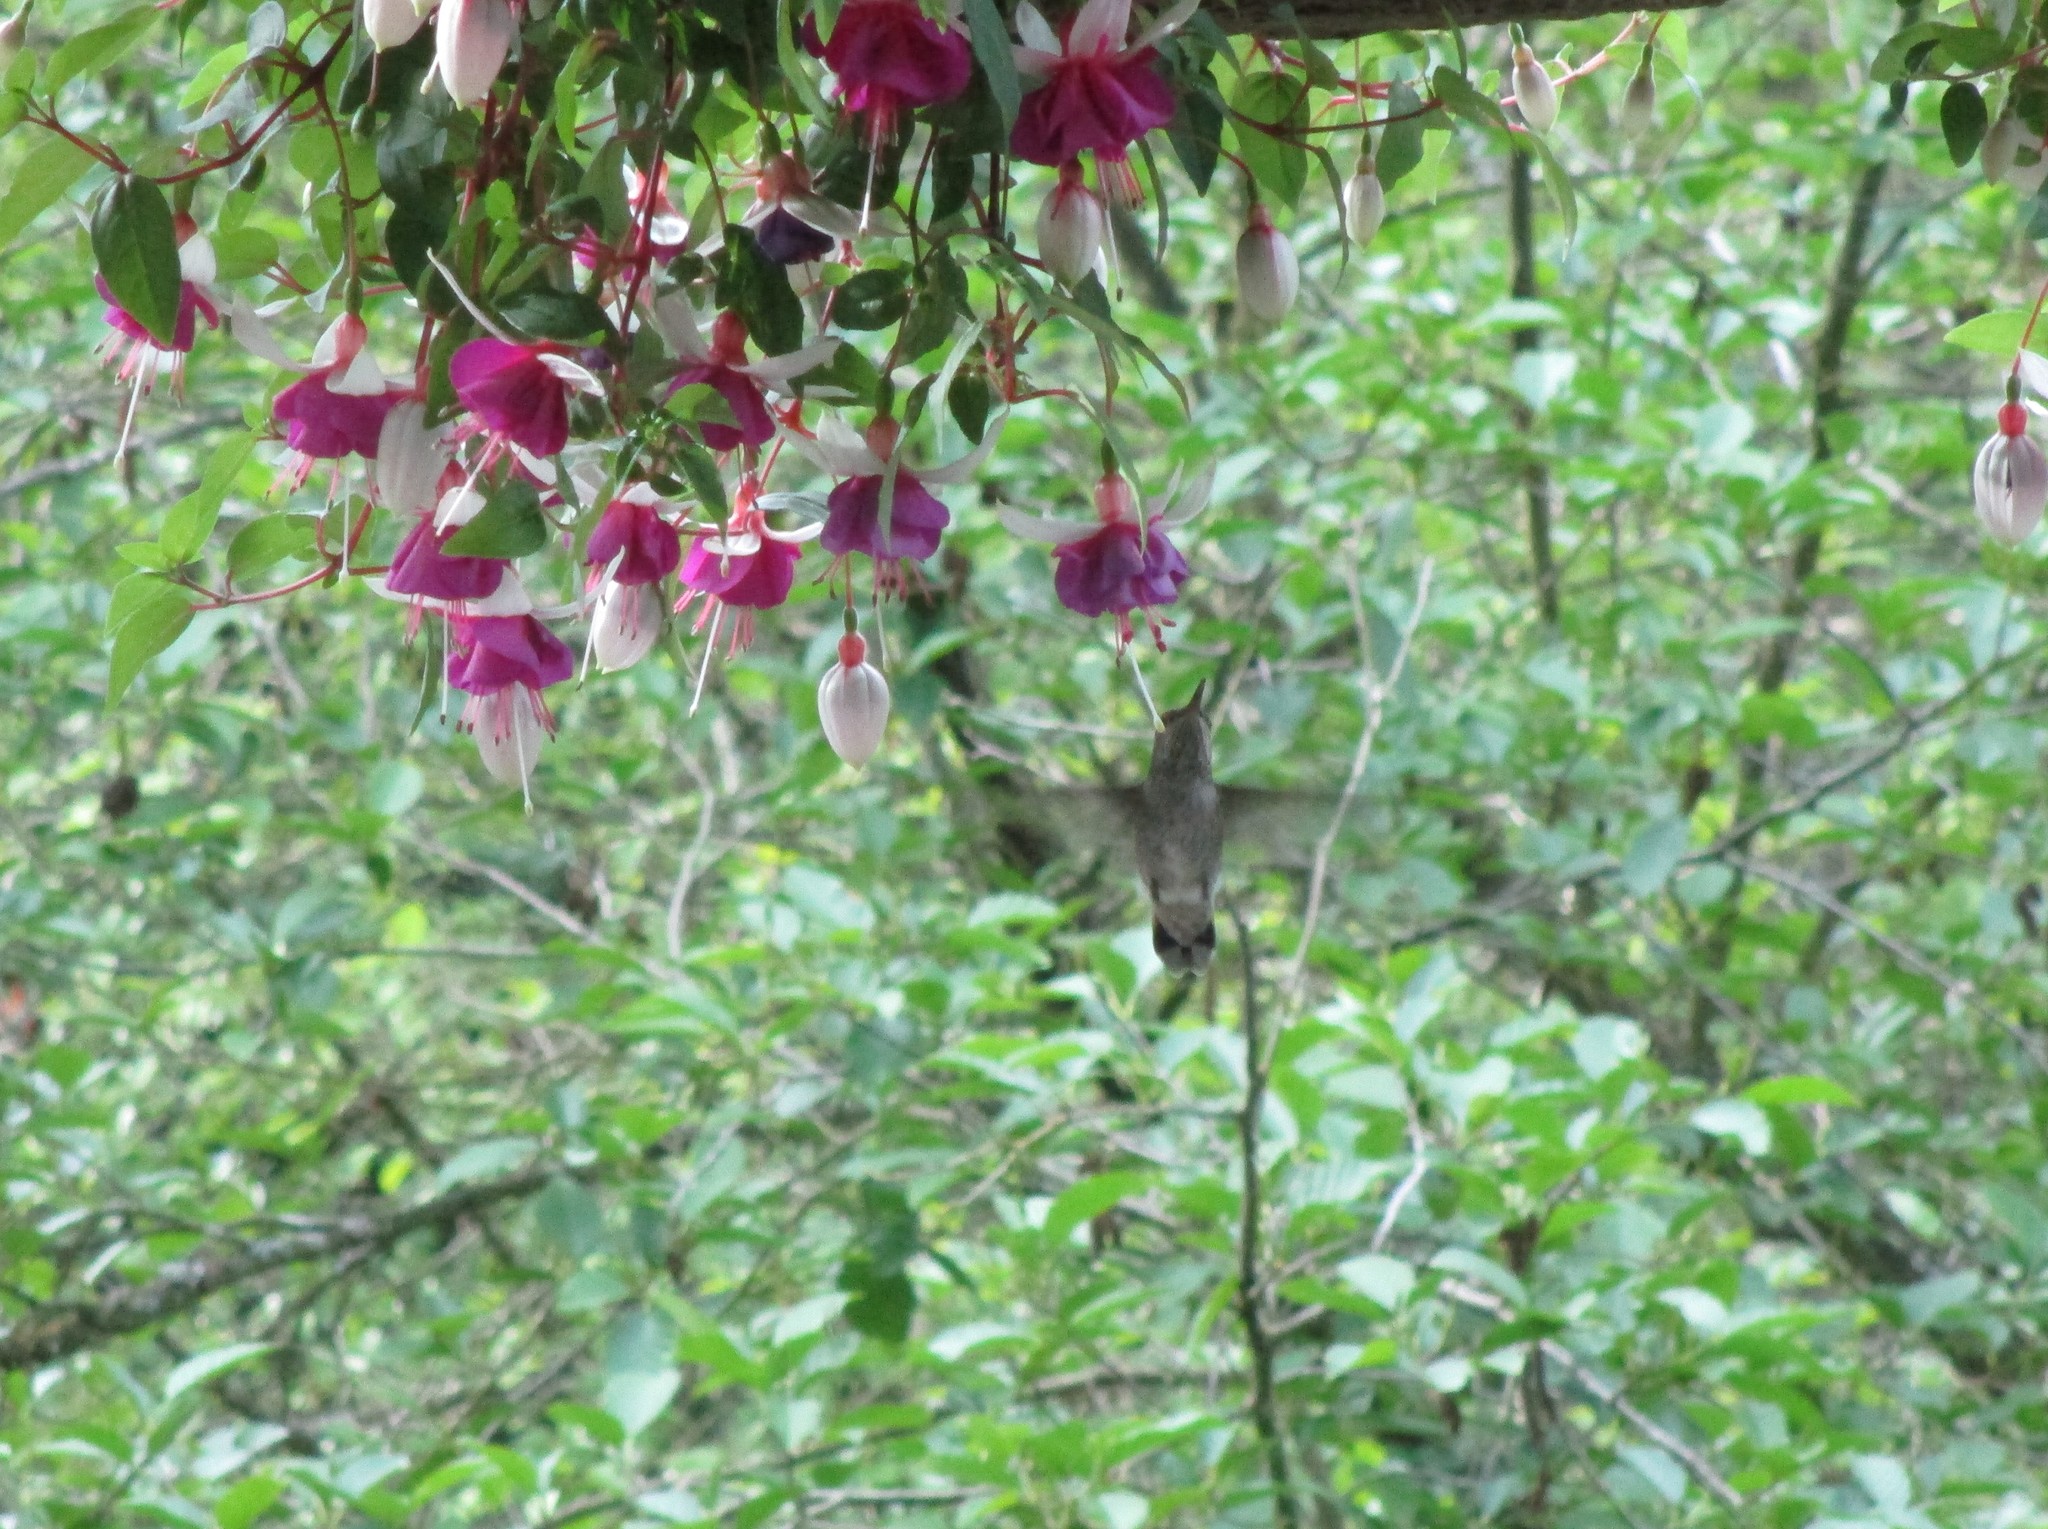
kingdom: Animalia
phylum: Chordata
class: Aves
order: Apodiformes
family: Trochilidae
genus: Calypte
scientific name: Calypte anna
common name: Anna's hummingbird
